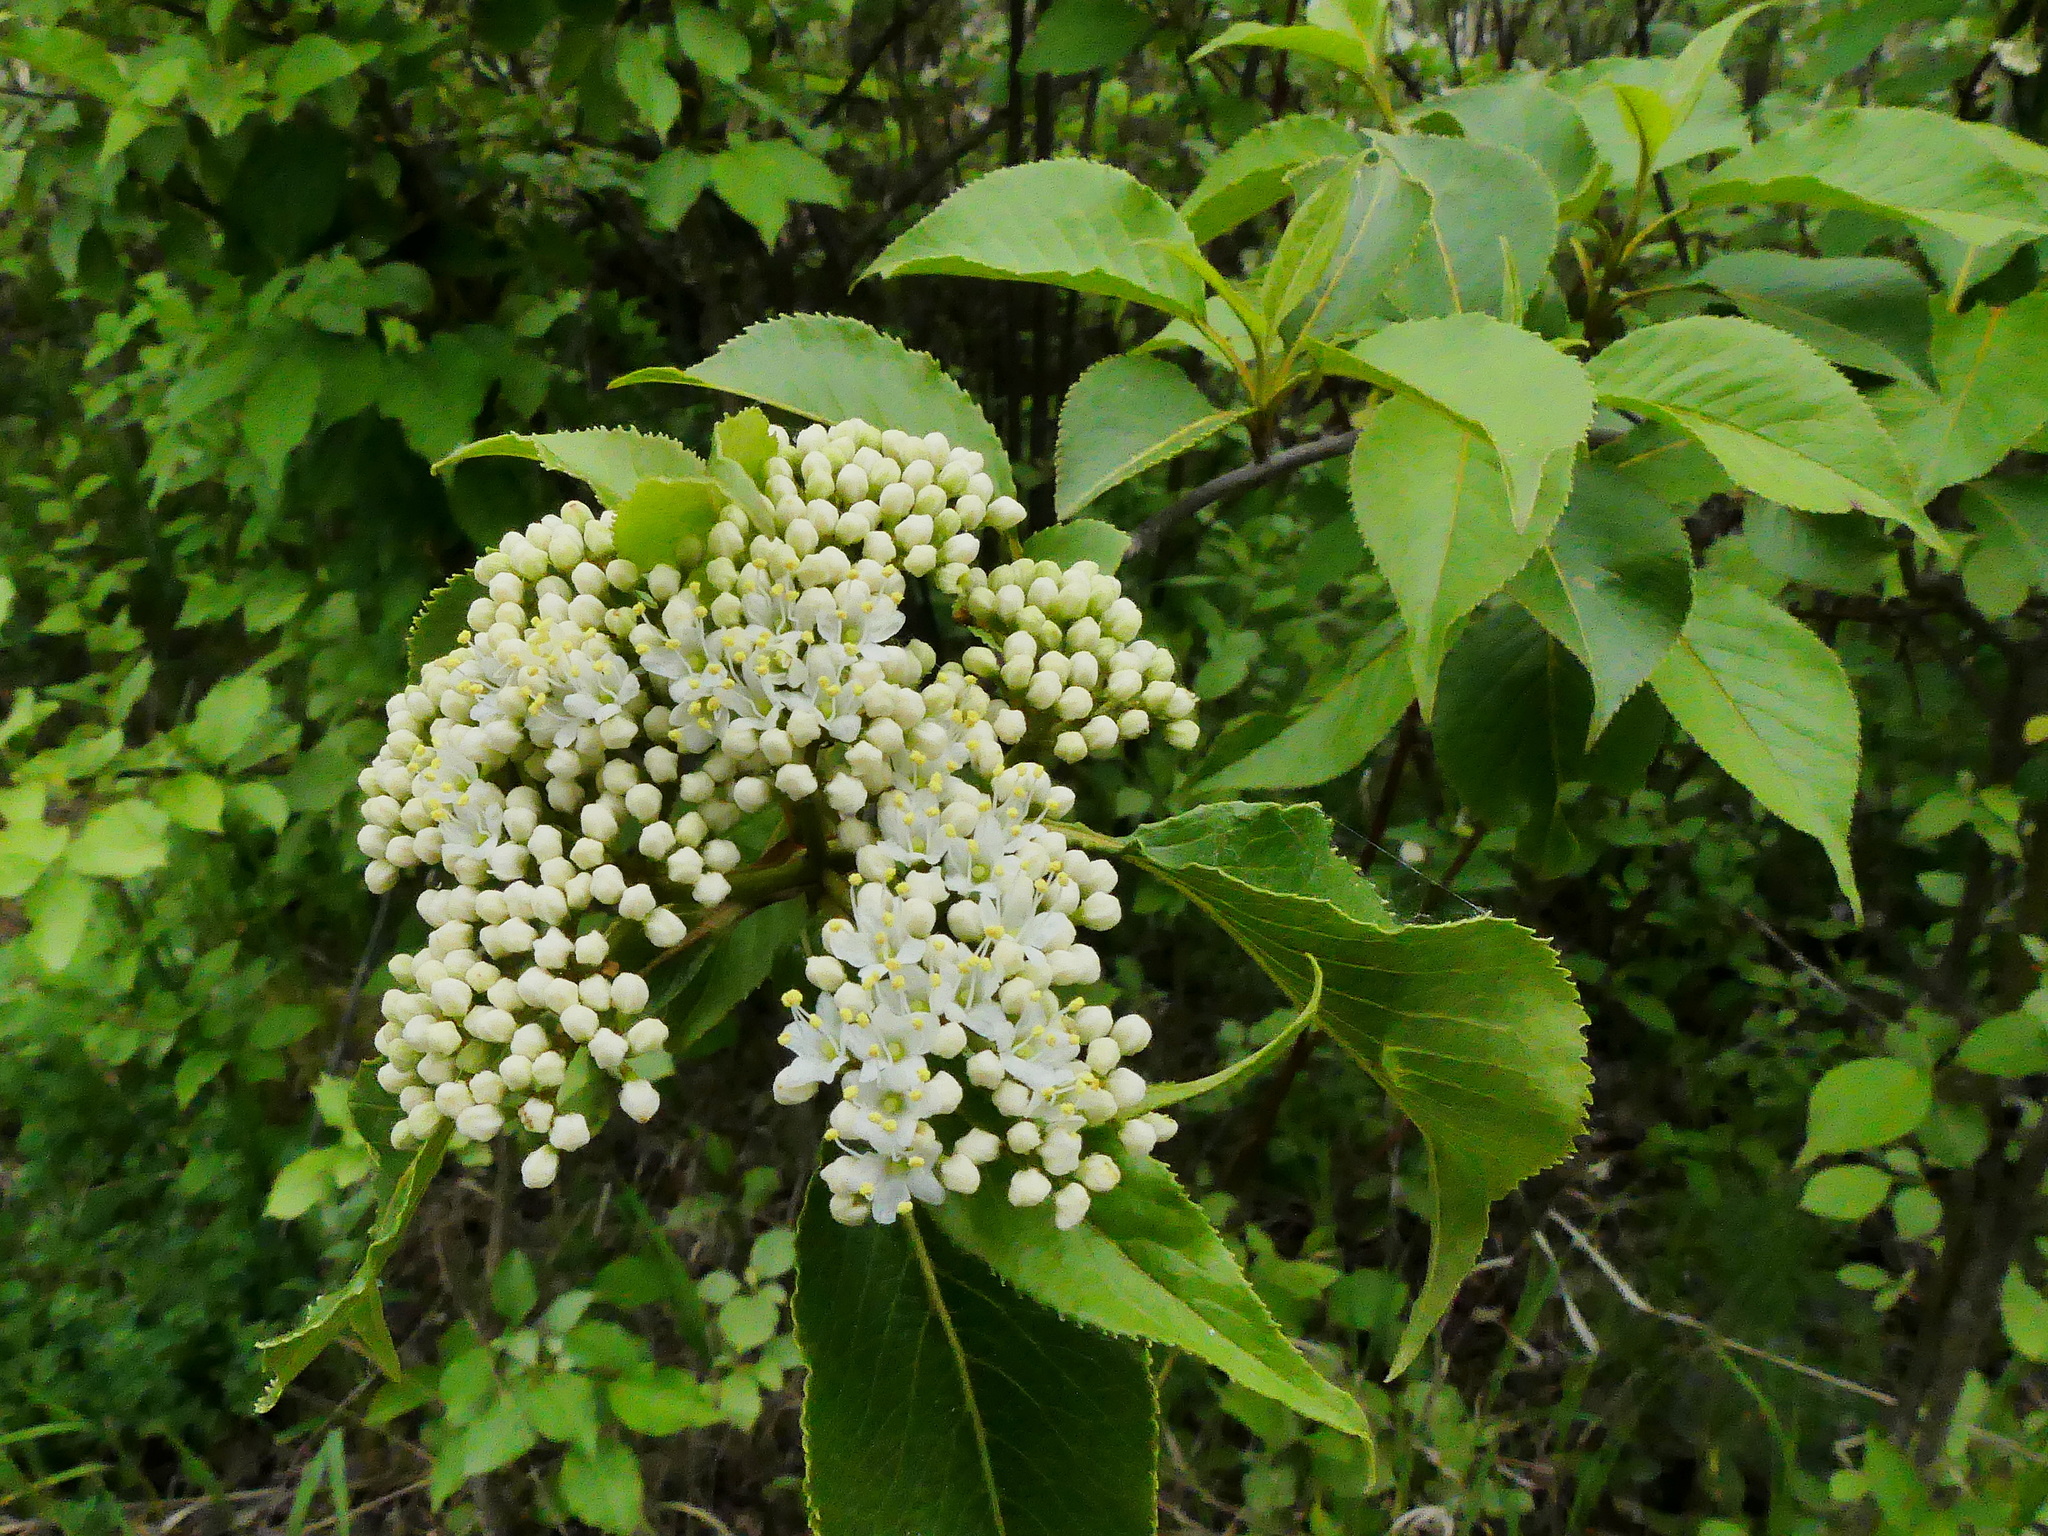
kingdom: Plantae
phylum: Tracheophyta
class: Magnoliopsida
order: Dipsacales
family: Viburnaceae
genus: Viburnum
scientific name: Viburnum lentago
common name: Black haw
